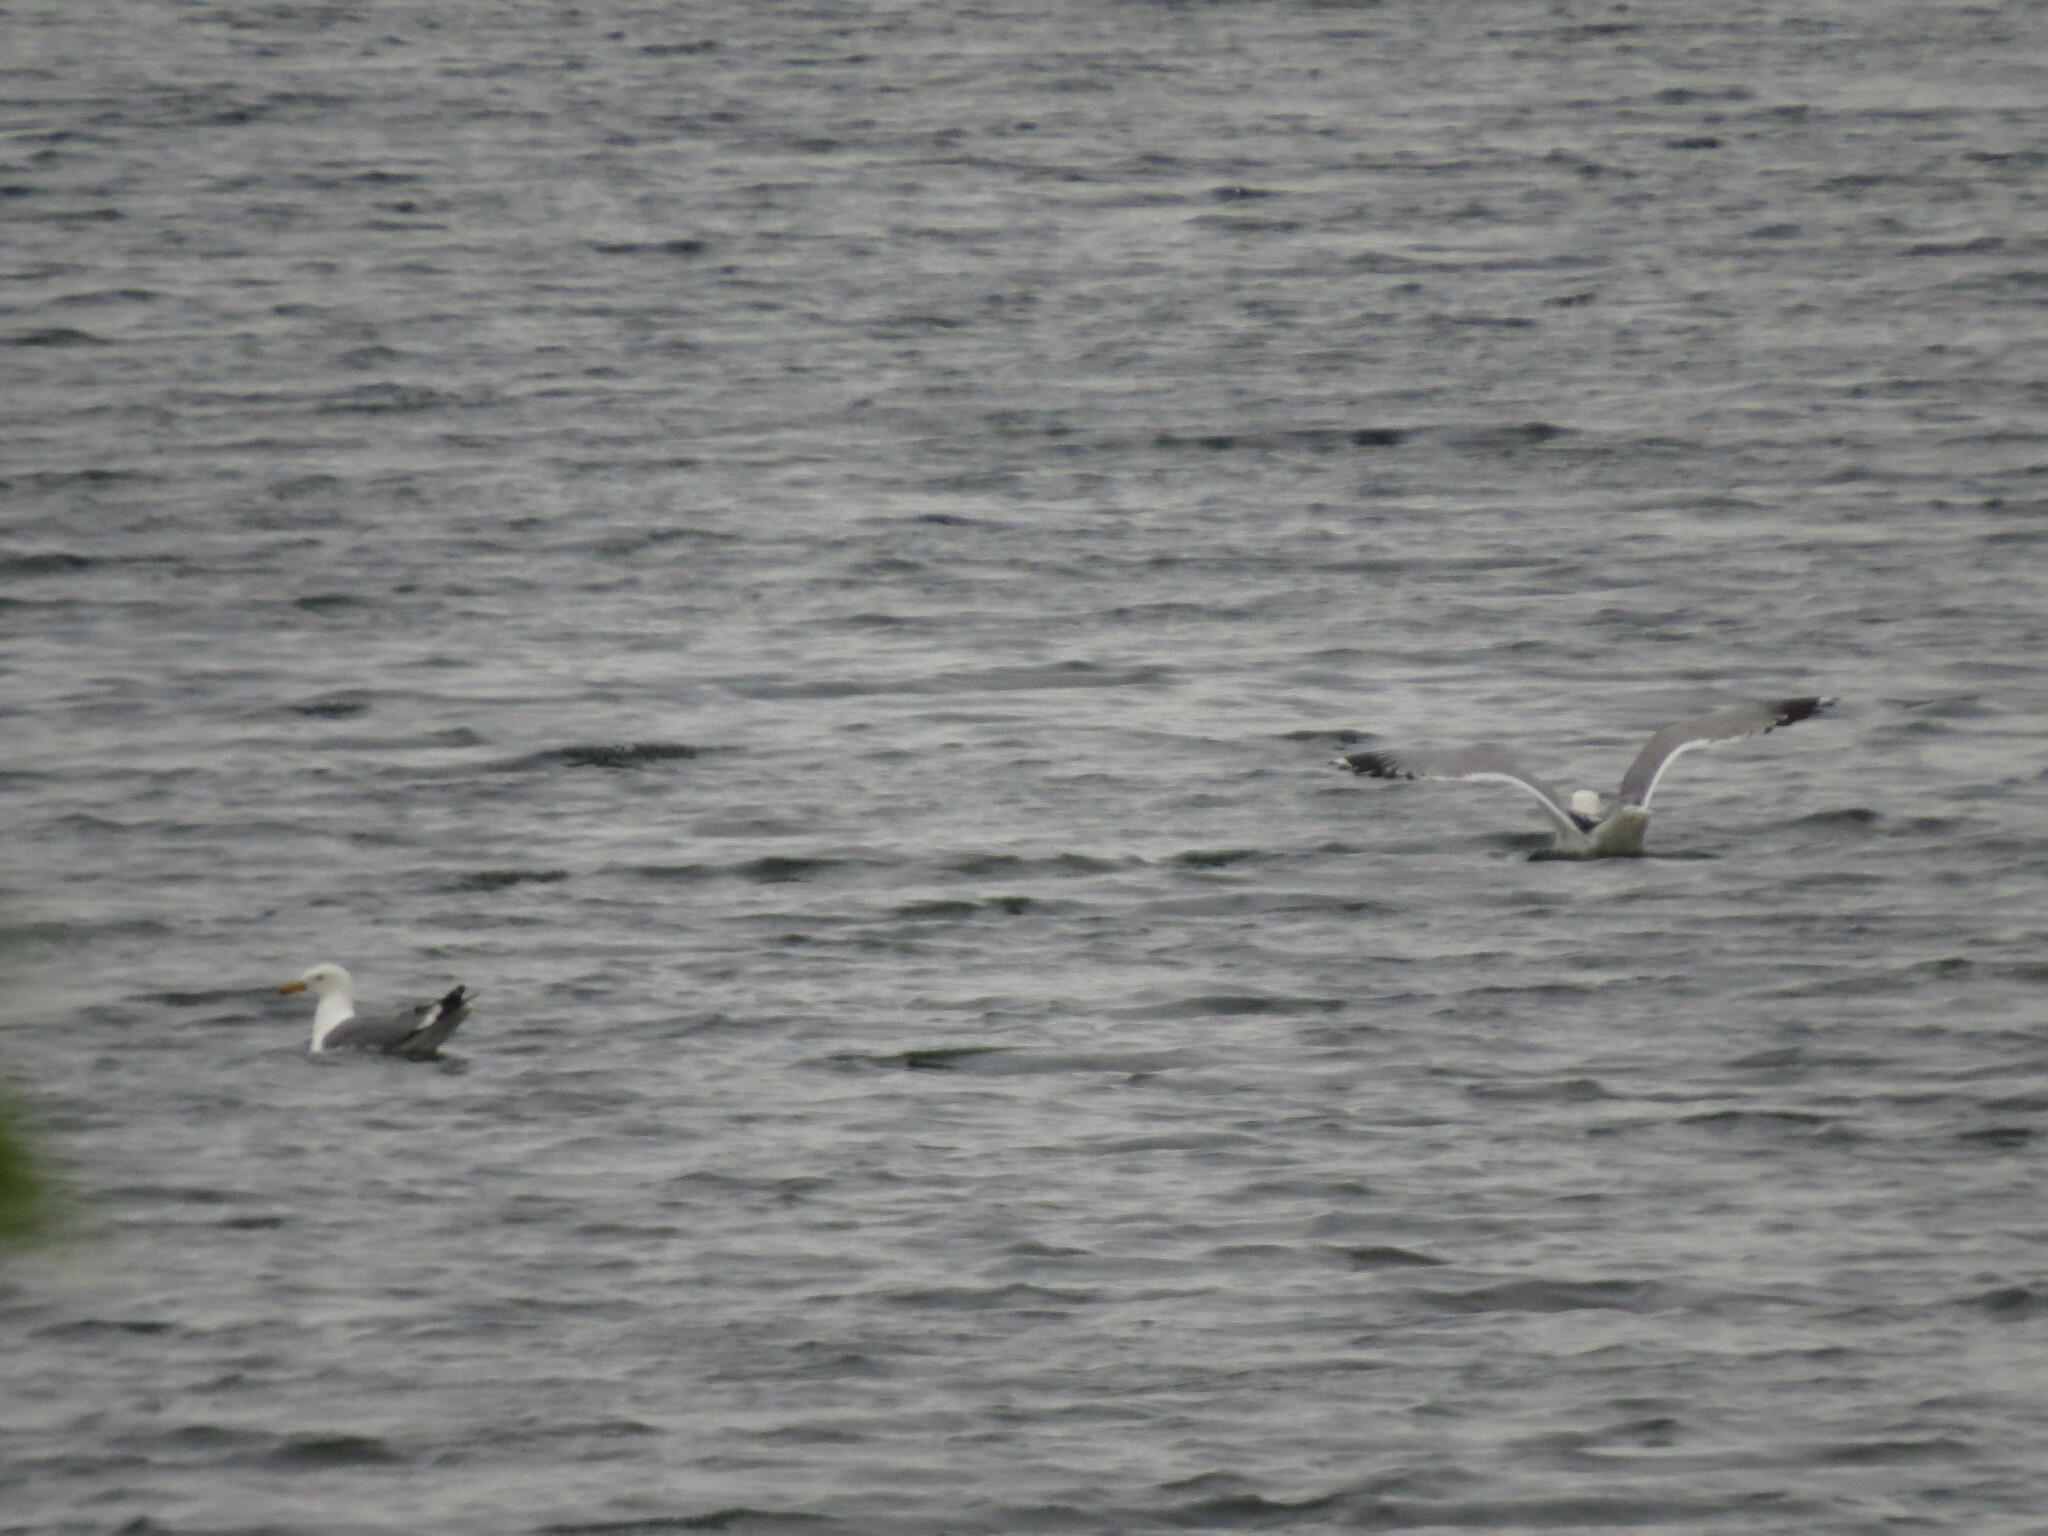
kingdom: Animalia
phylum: Chordata
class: Aves
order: Charadriiformes
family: Laridae
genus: Larus
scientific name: Larus fuscus
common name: Lesser black-backed gull
